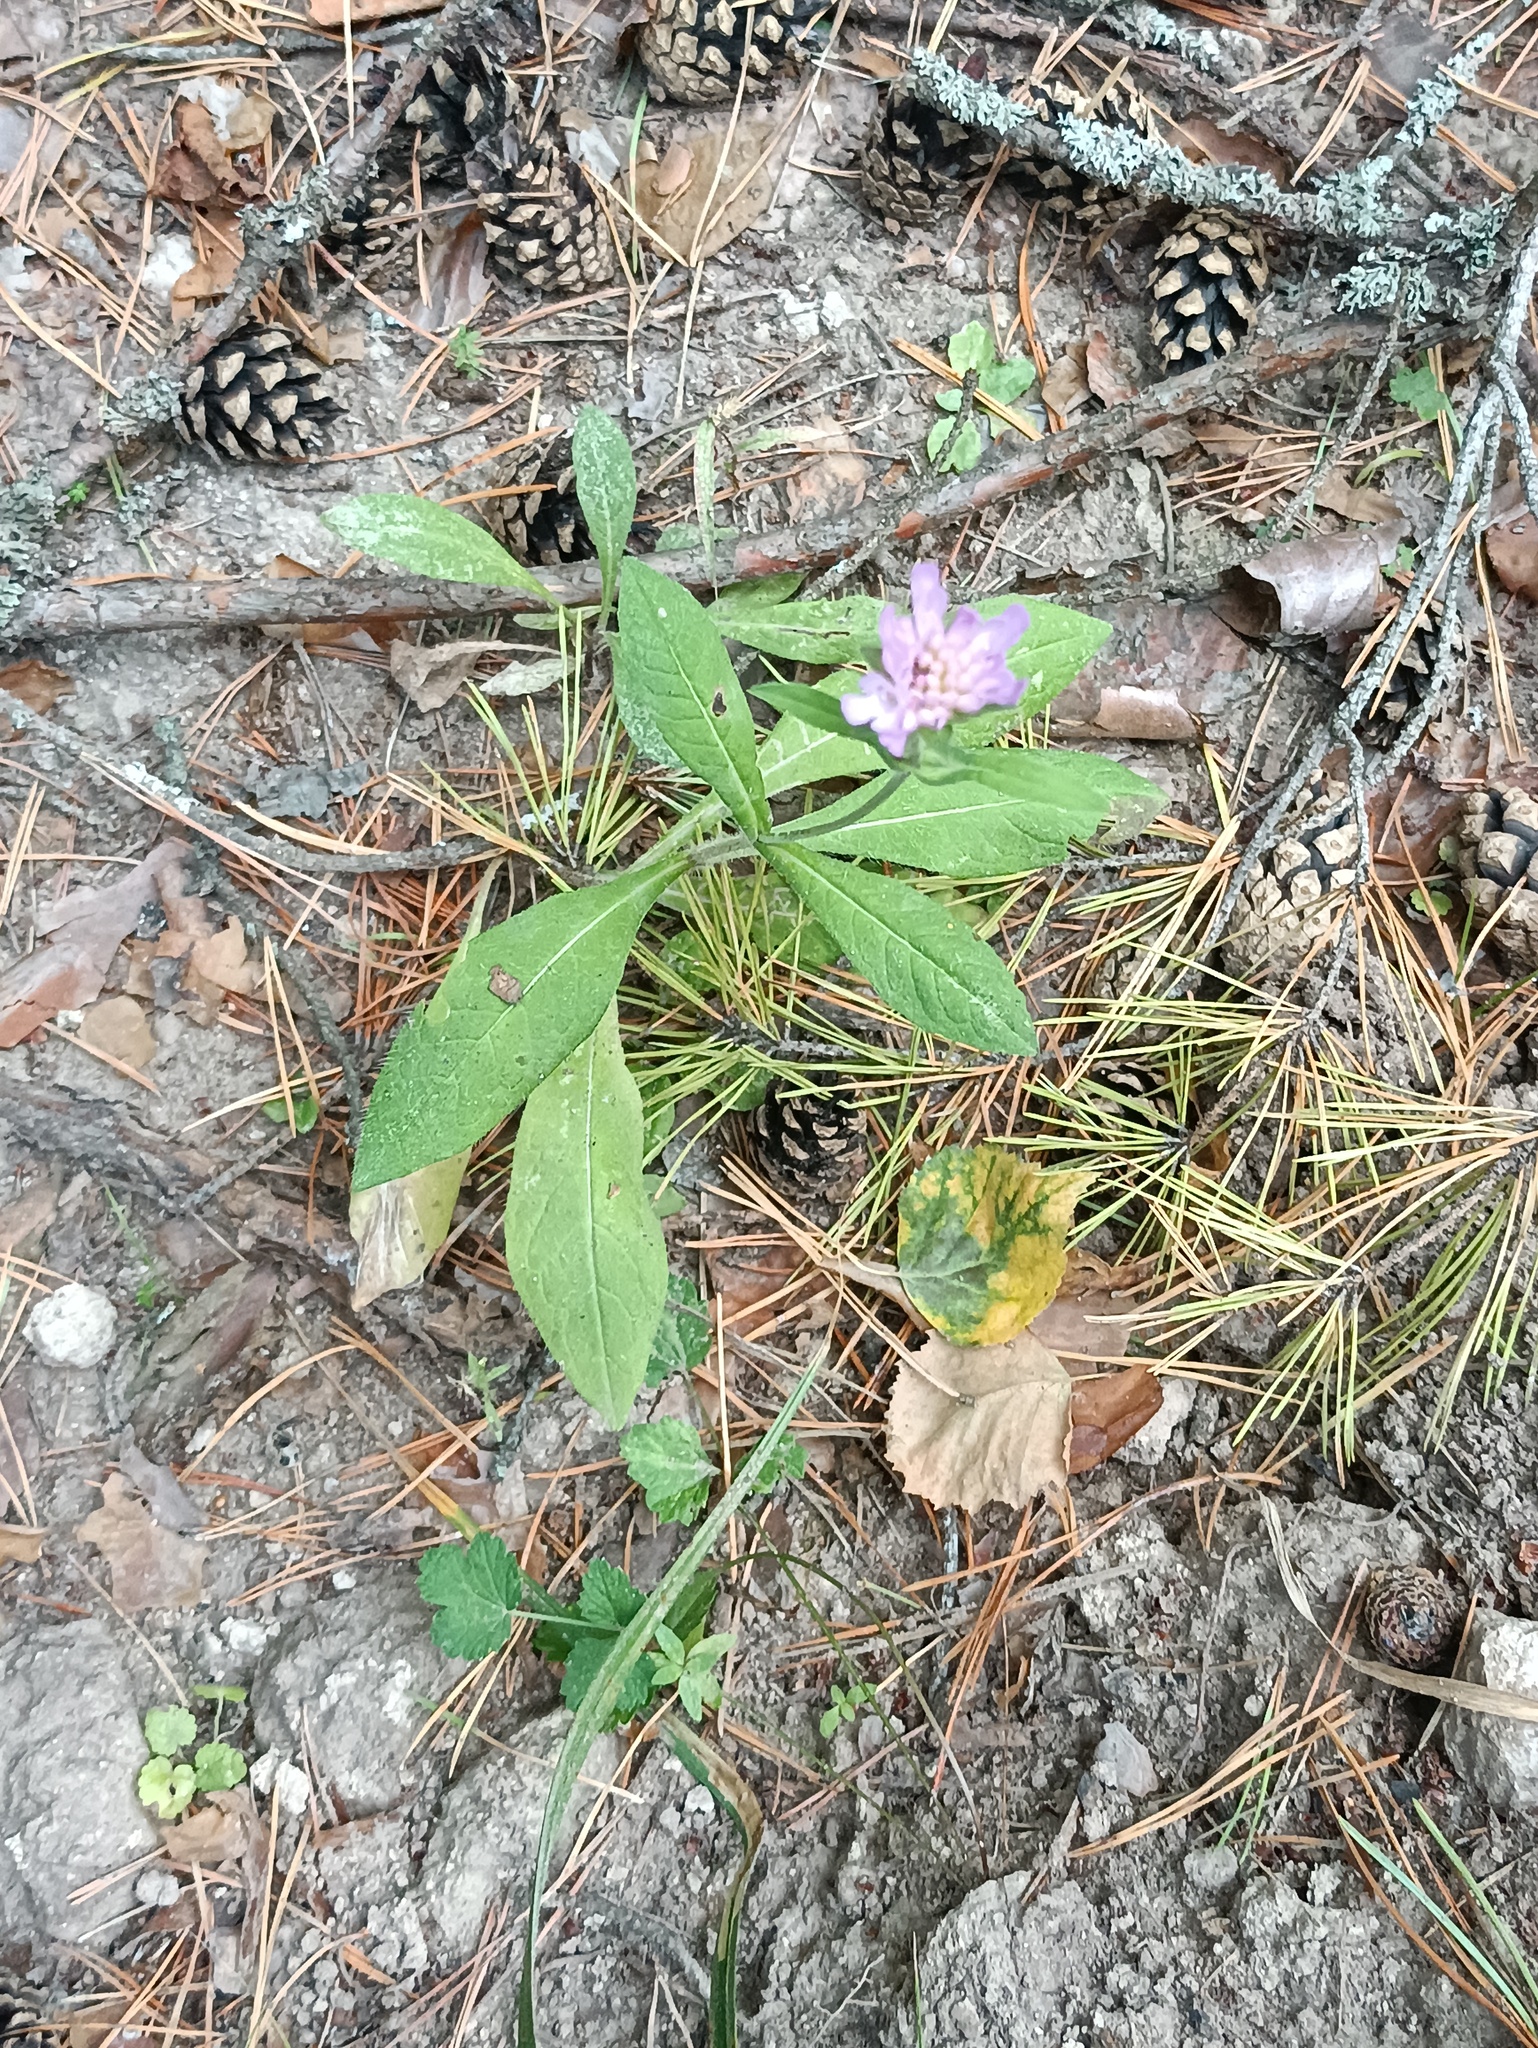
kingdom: Plantae
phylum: Tracheophyta
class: Magnoliopsida
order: Dipsacales
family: Caprifoliaceae
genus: Knautia
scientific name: Knautia arvensis
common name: Field scabiosa
